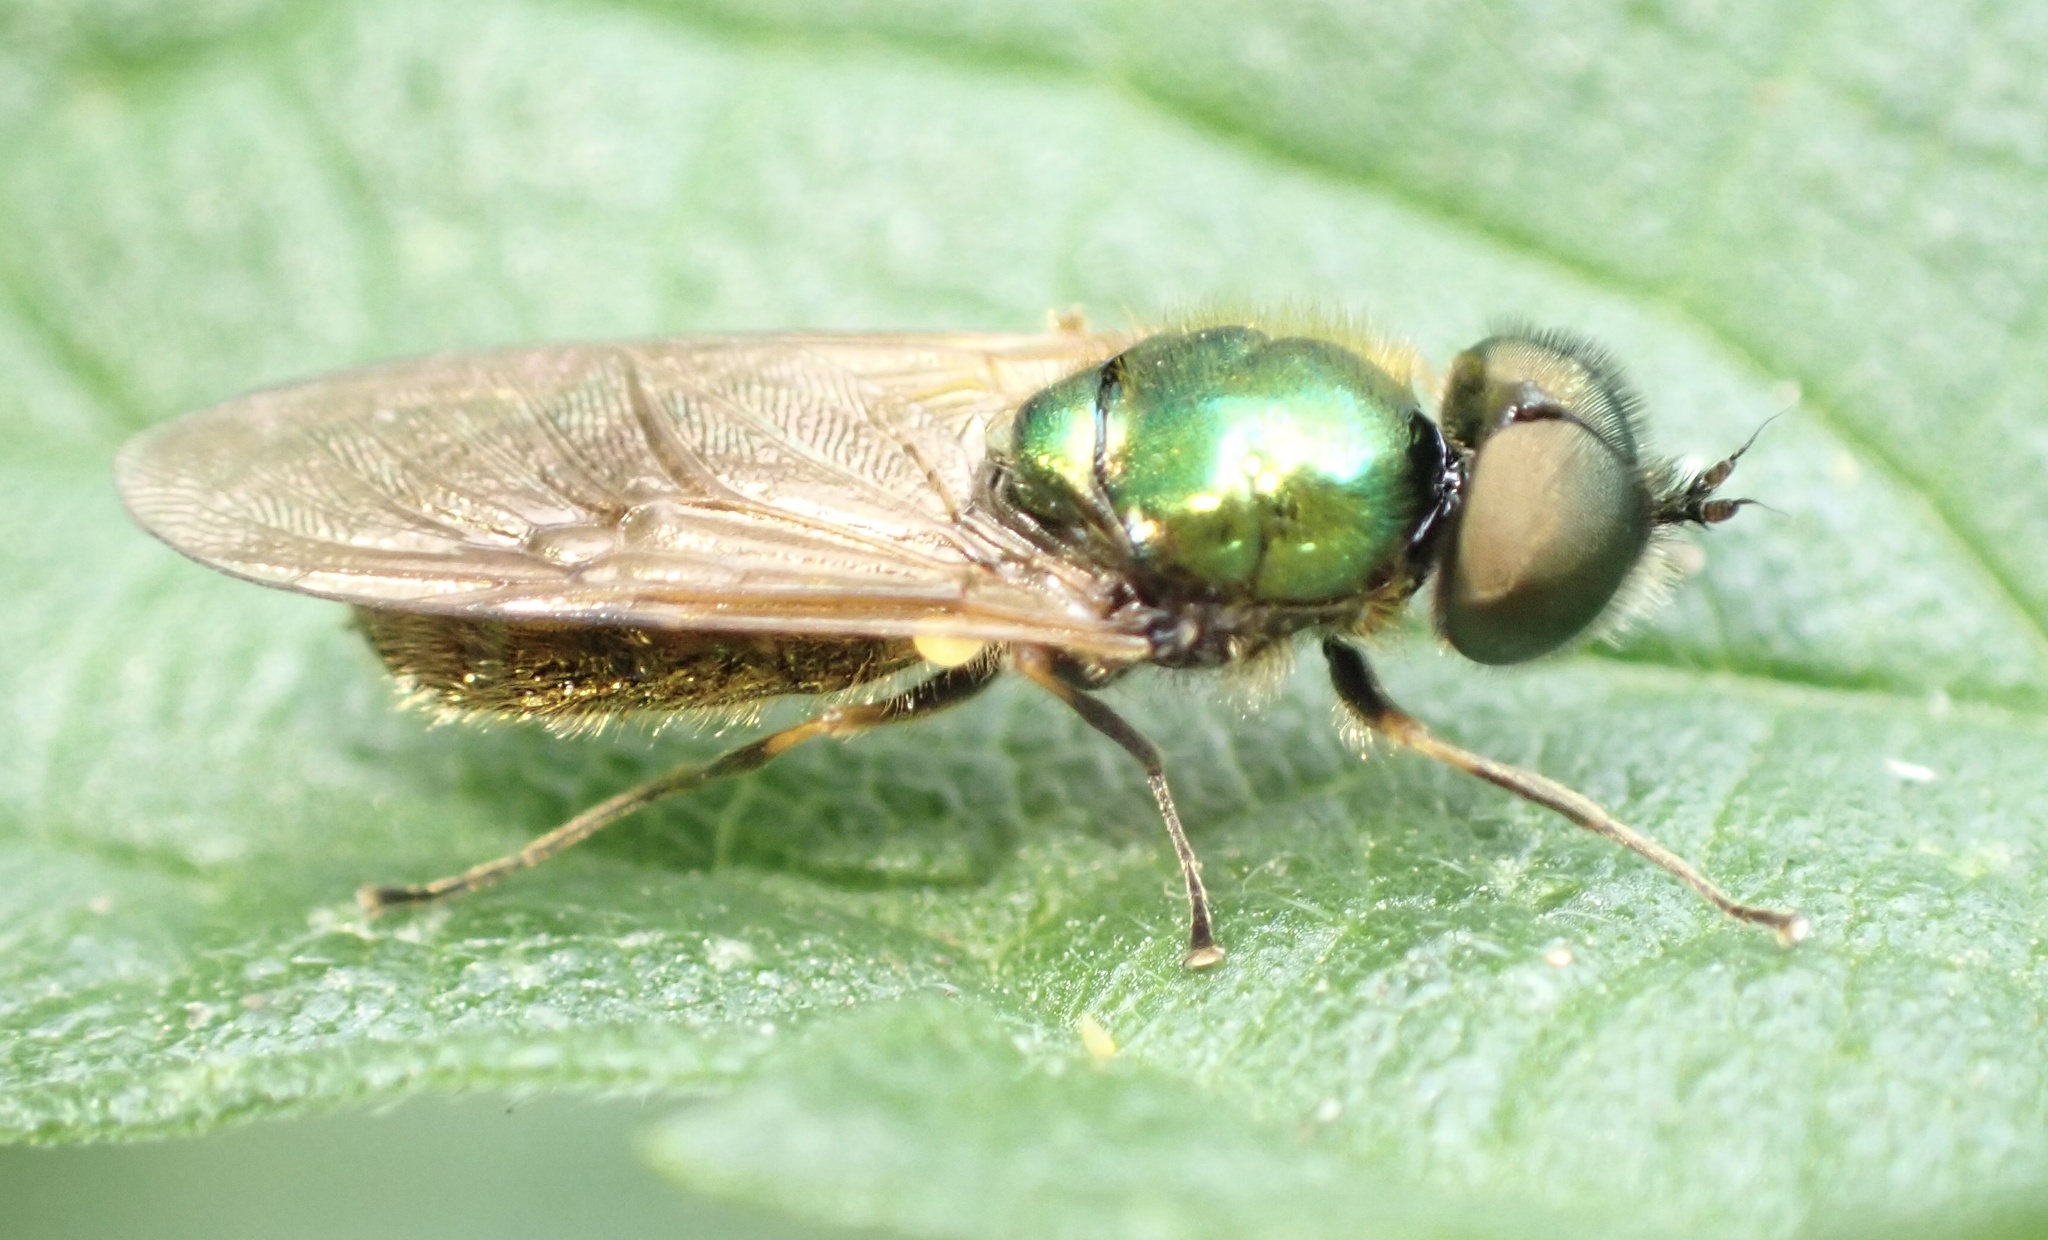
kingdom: Animalia
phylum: Arthropoda
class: Insecta
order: Diptera
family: Stratiomyidae
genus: Chloromyia
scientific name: Chloromyia formosa
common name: Soldier fly
